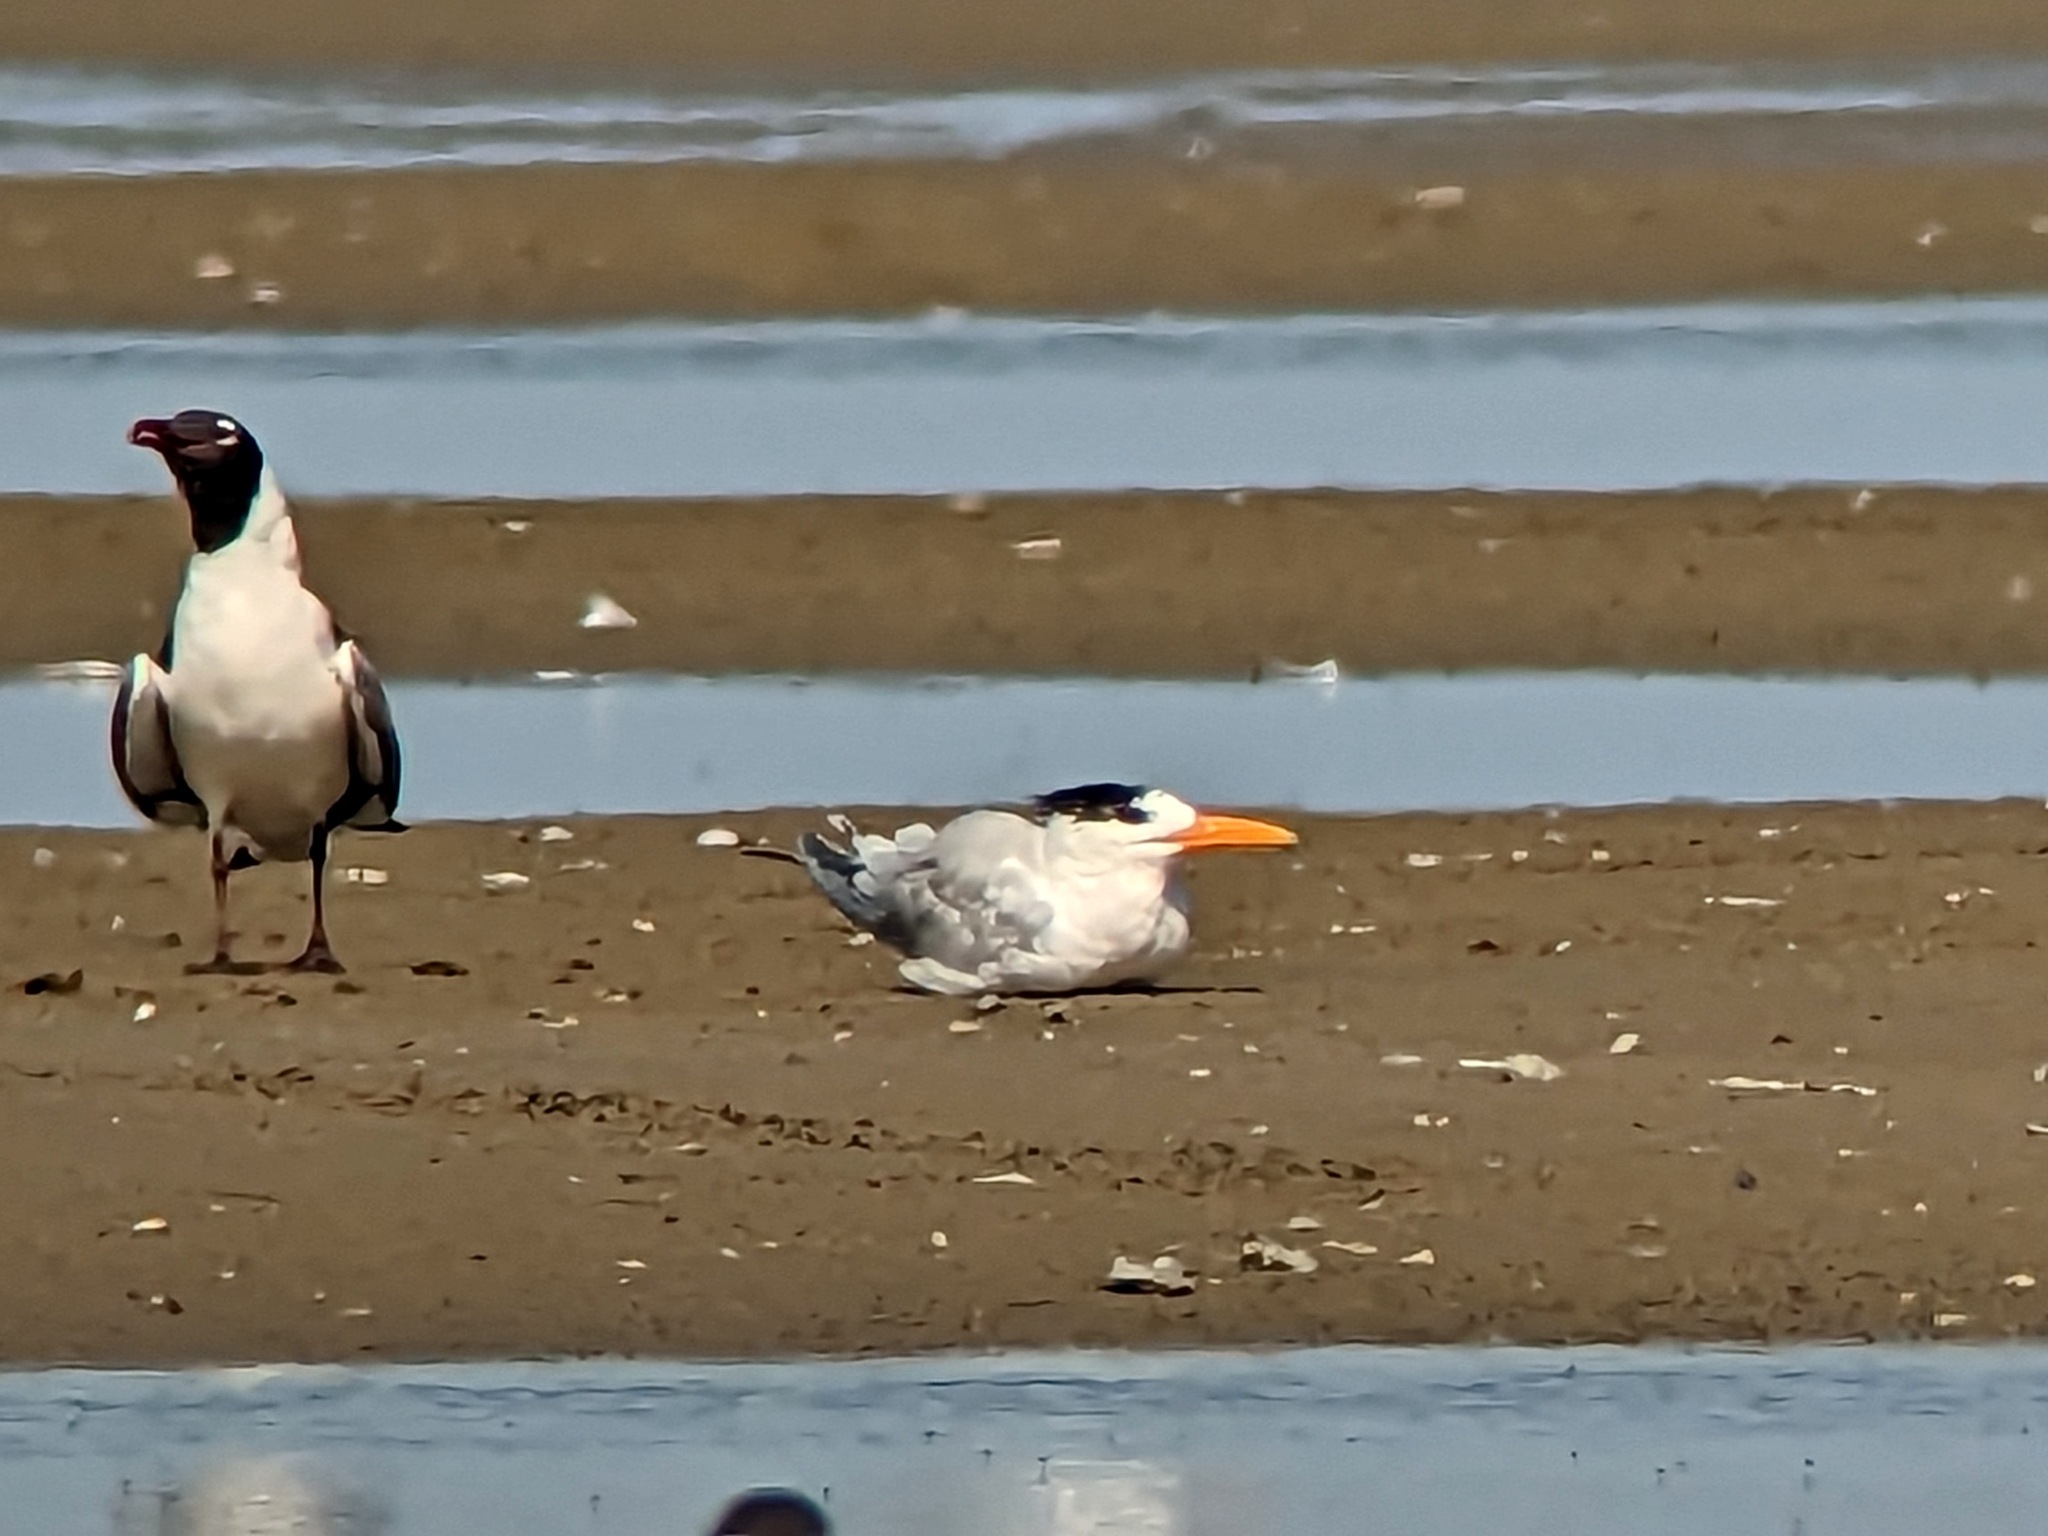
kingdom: Animalia
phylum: Chordata
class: Aves
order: Charadriiformes
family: Laridae
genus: Thalasseus
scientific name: Thalasseus maximus
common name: Royal tern
